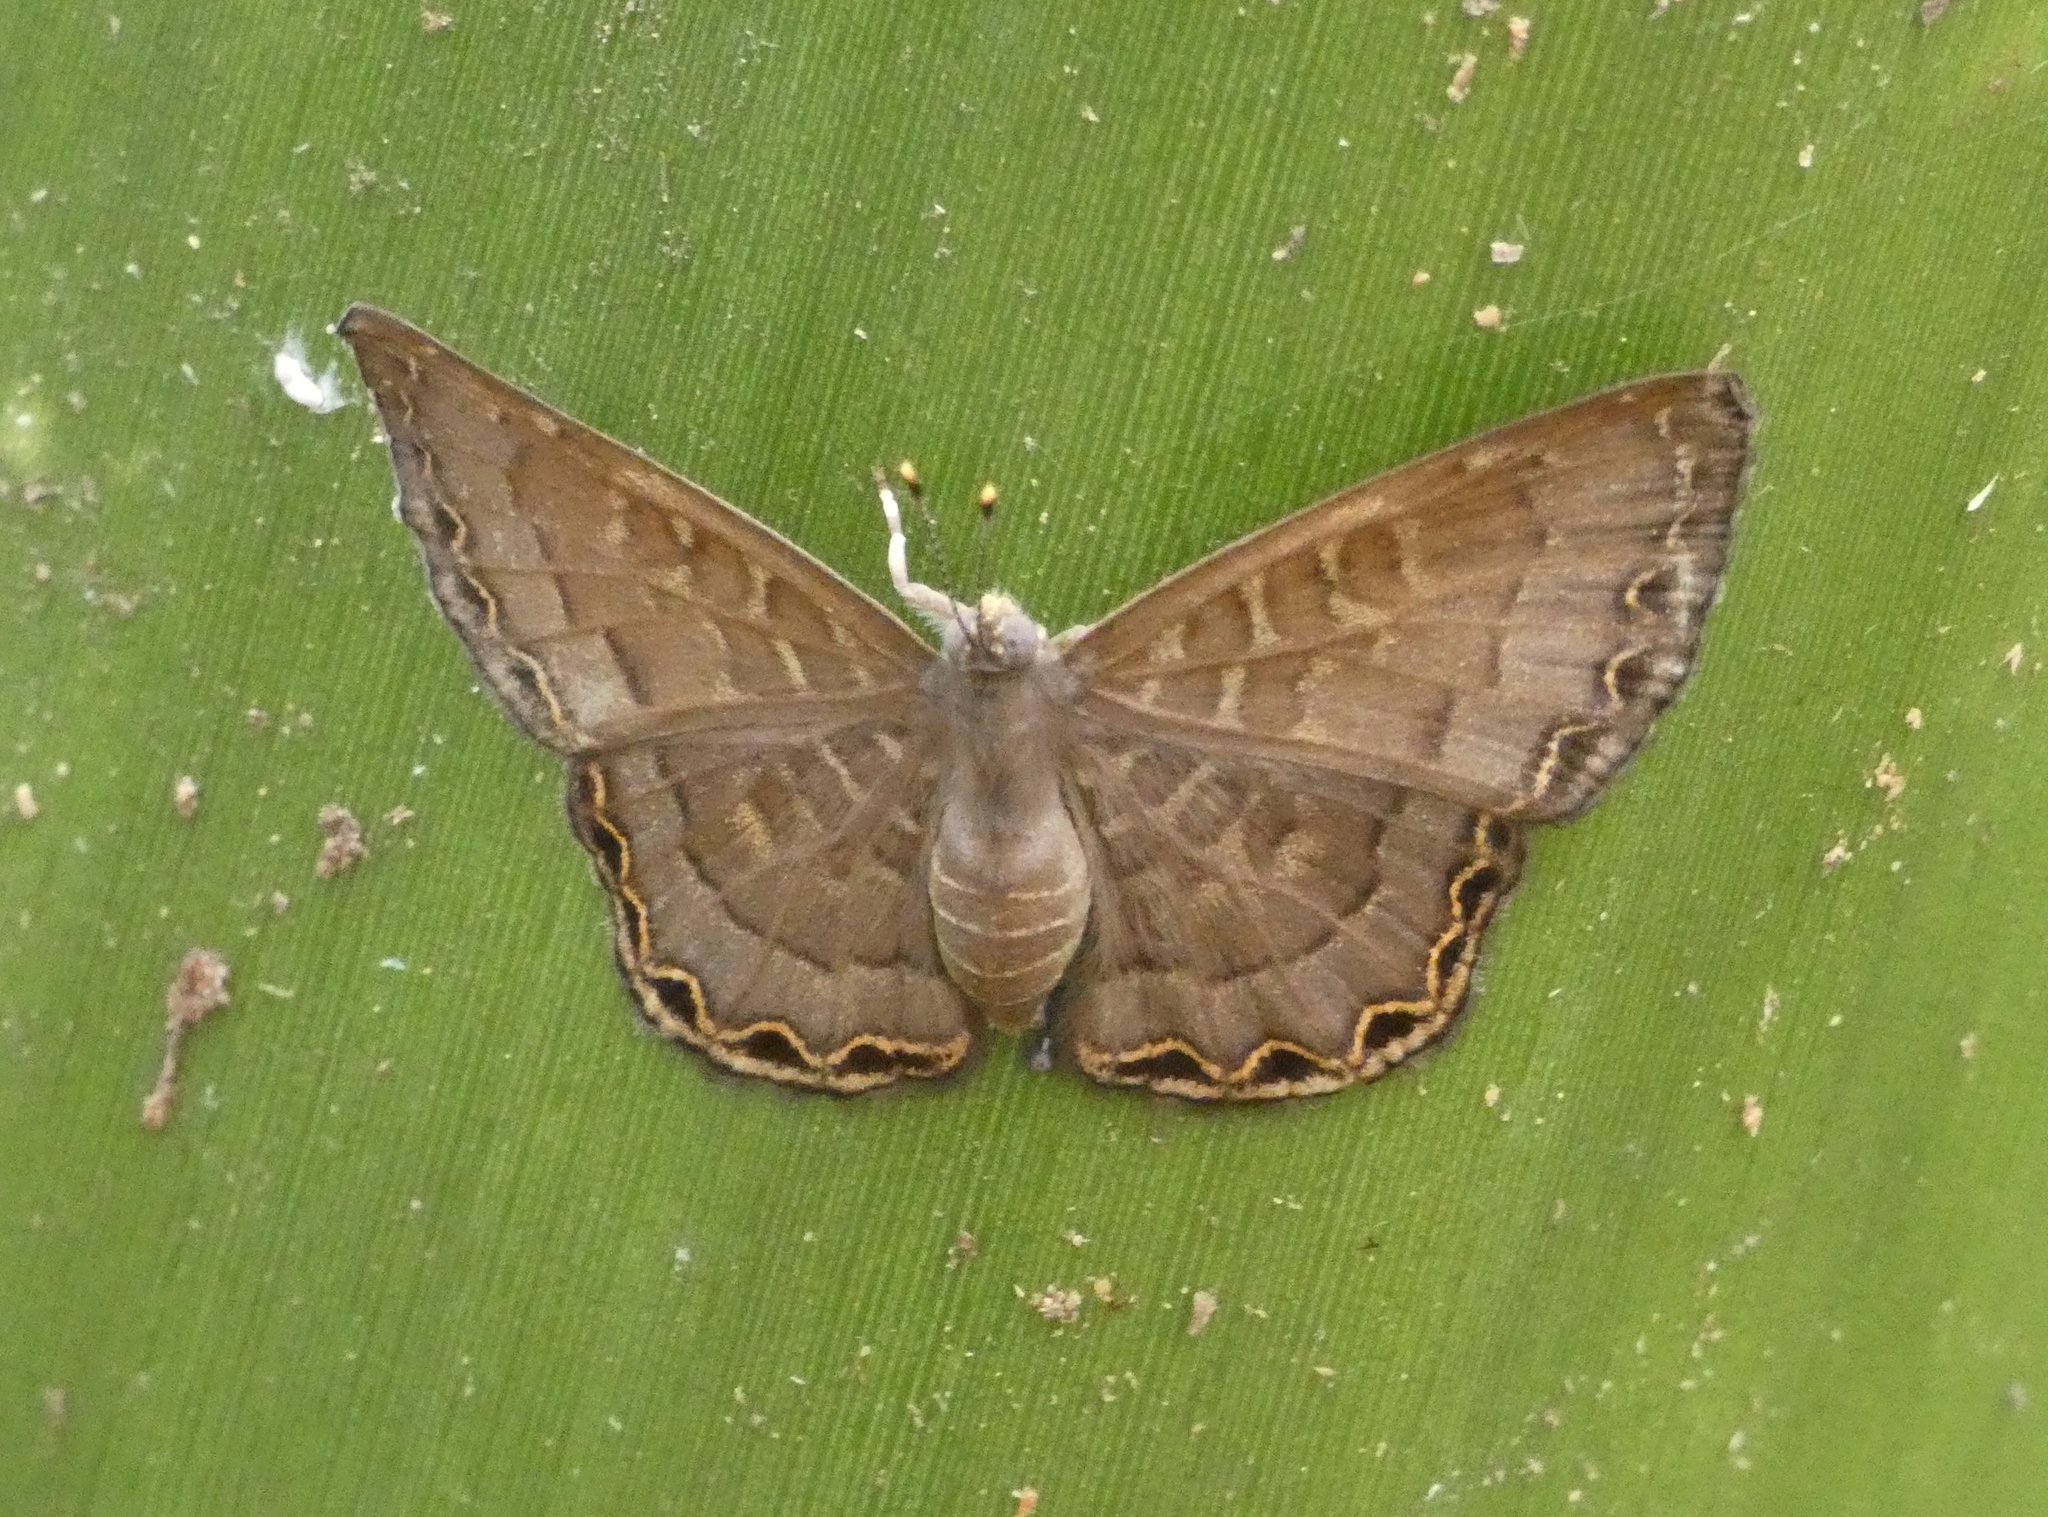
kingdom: Animalia
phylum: Arthropoda
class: Insecta
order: Diptera
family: Ephydridae
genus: Napaea
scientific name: Napaea phryxe
